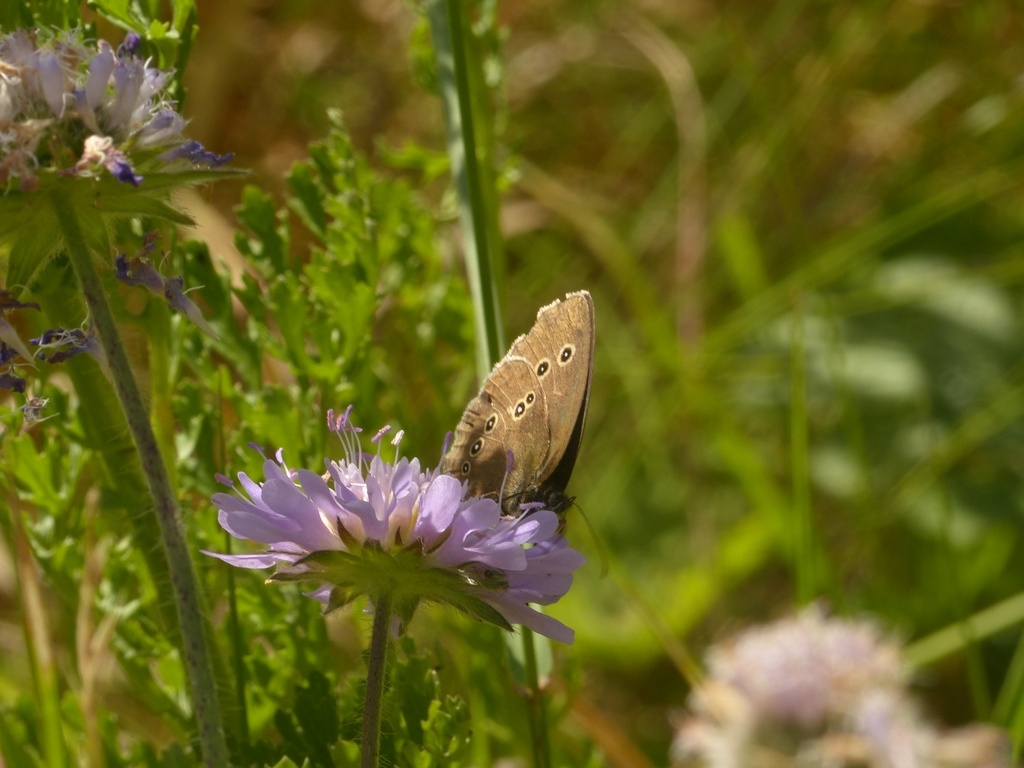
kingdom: Animalia
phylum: Arthropoda
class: Insecta
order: Lepidoptera
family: Nymphalidae
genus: Aphantopus
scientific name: Aphantopus hyperantus
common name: Ringlet
